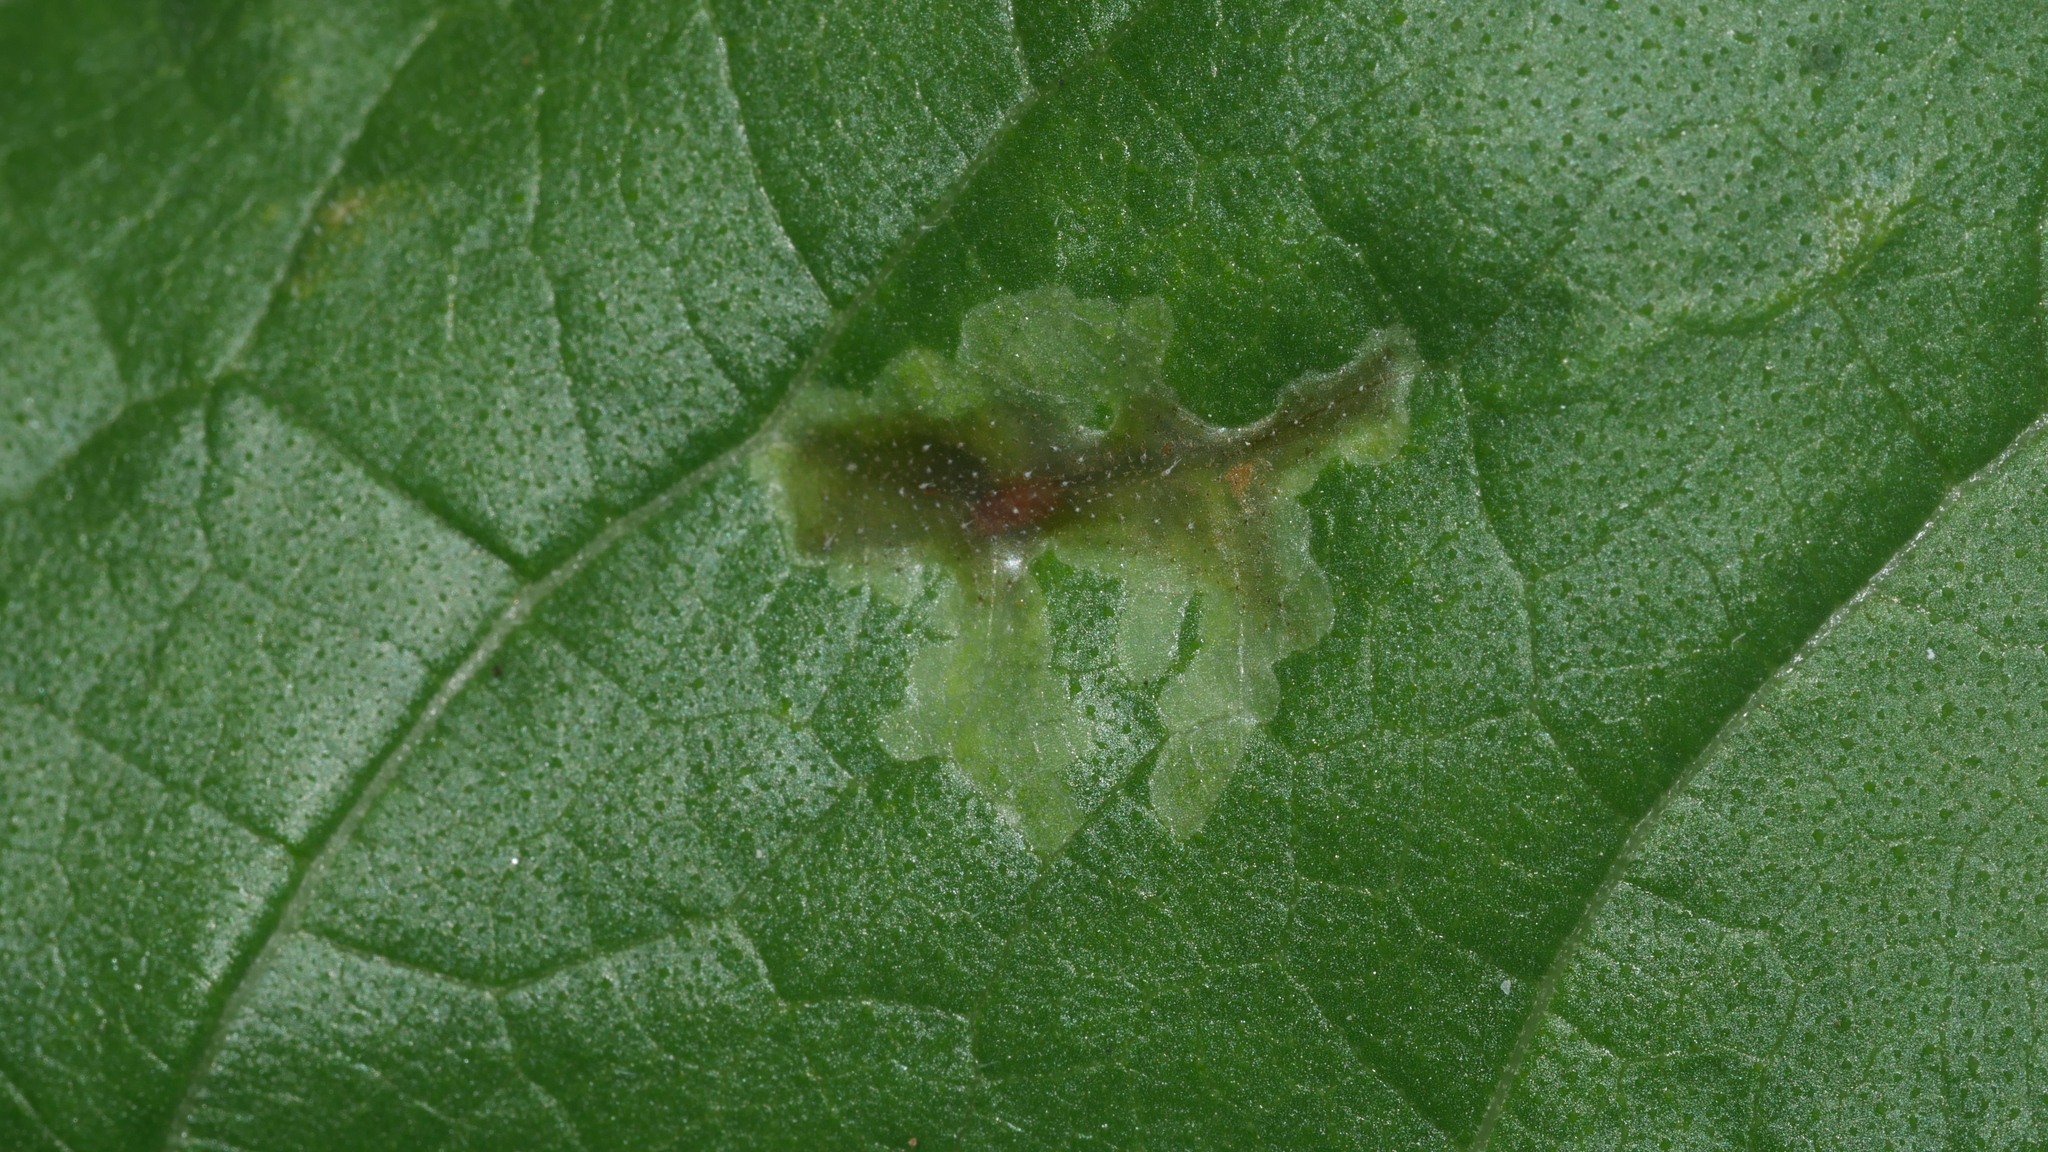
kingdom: Animalia
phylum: Arthropoda
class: Insecta
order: Diptera
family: Agromyzidae
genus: Calycomyza
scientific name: Calycomyza platyptera
